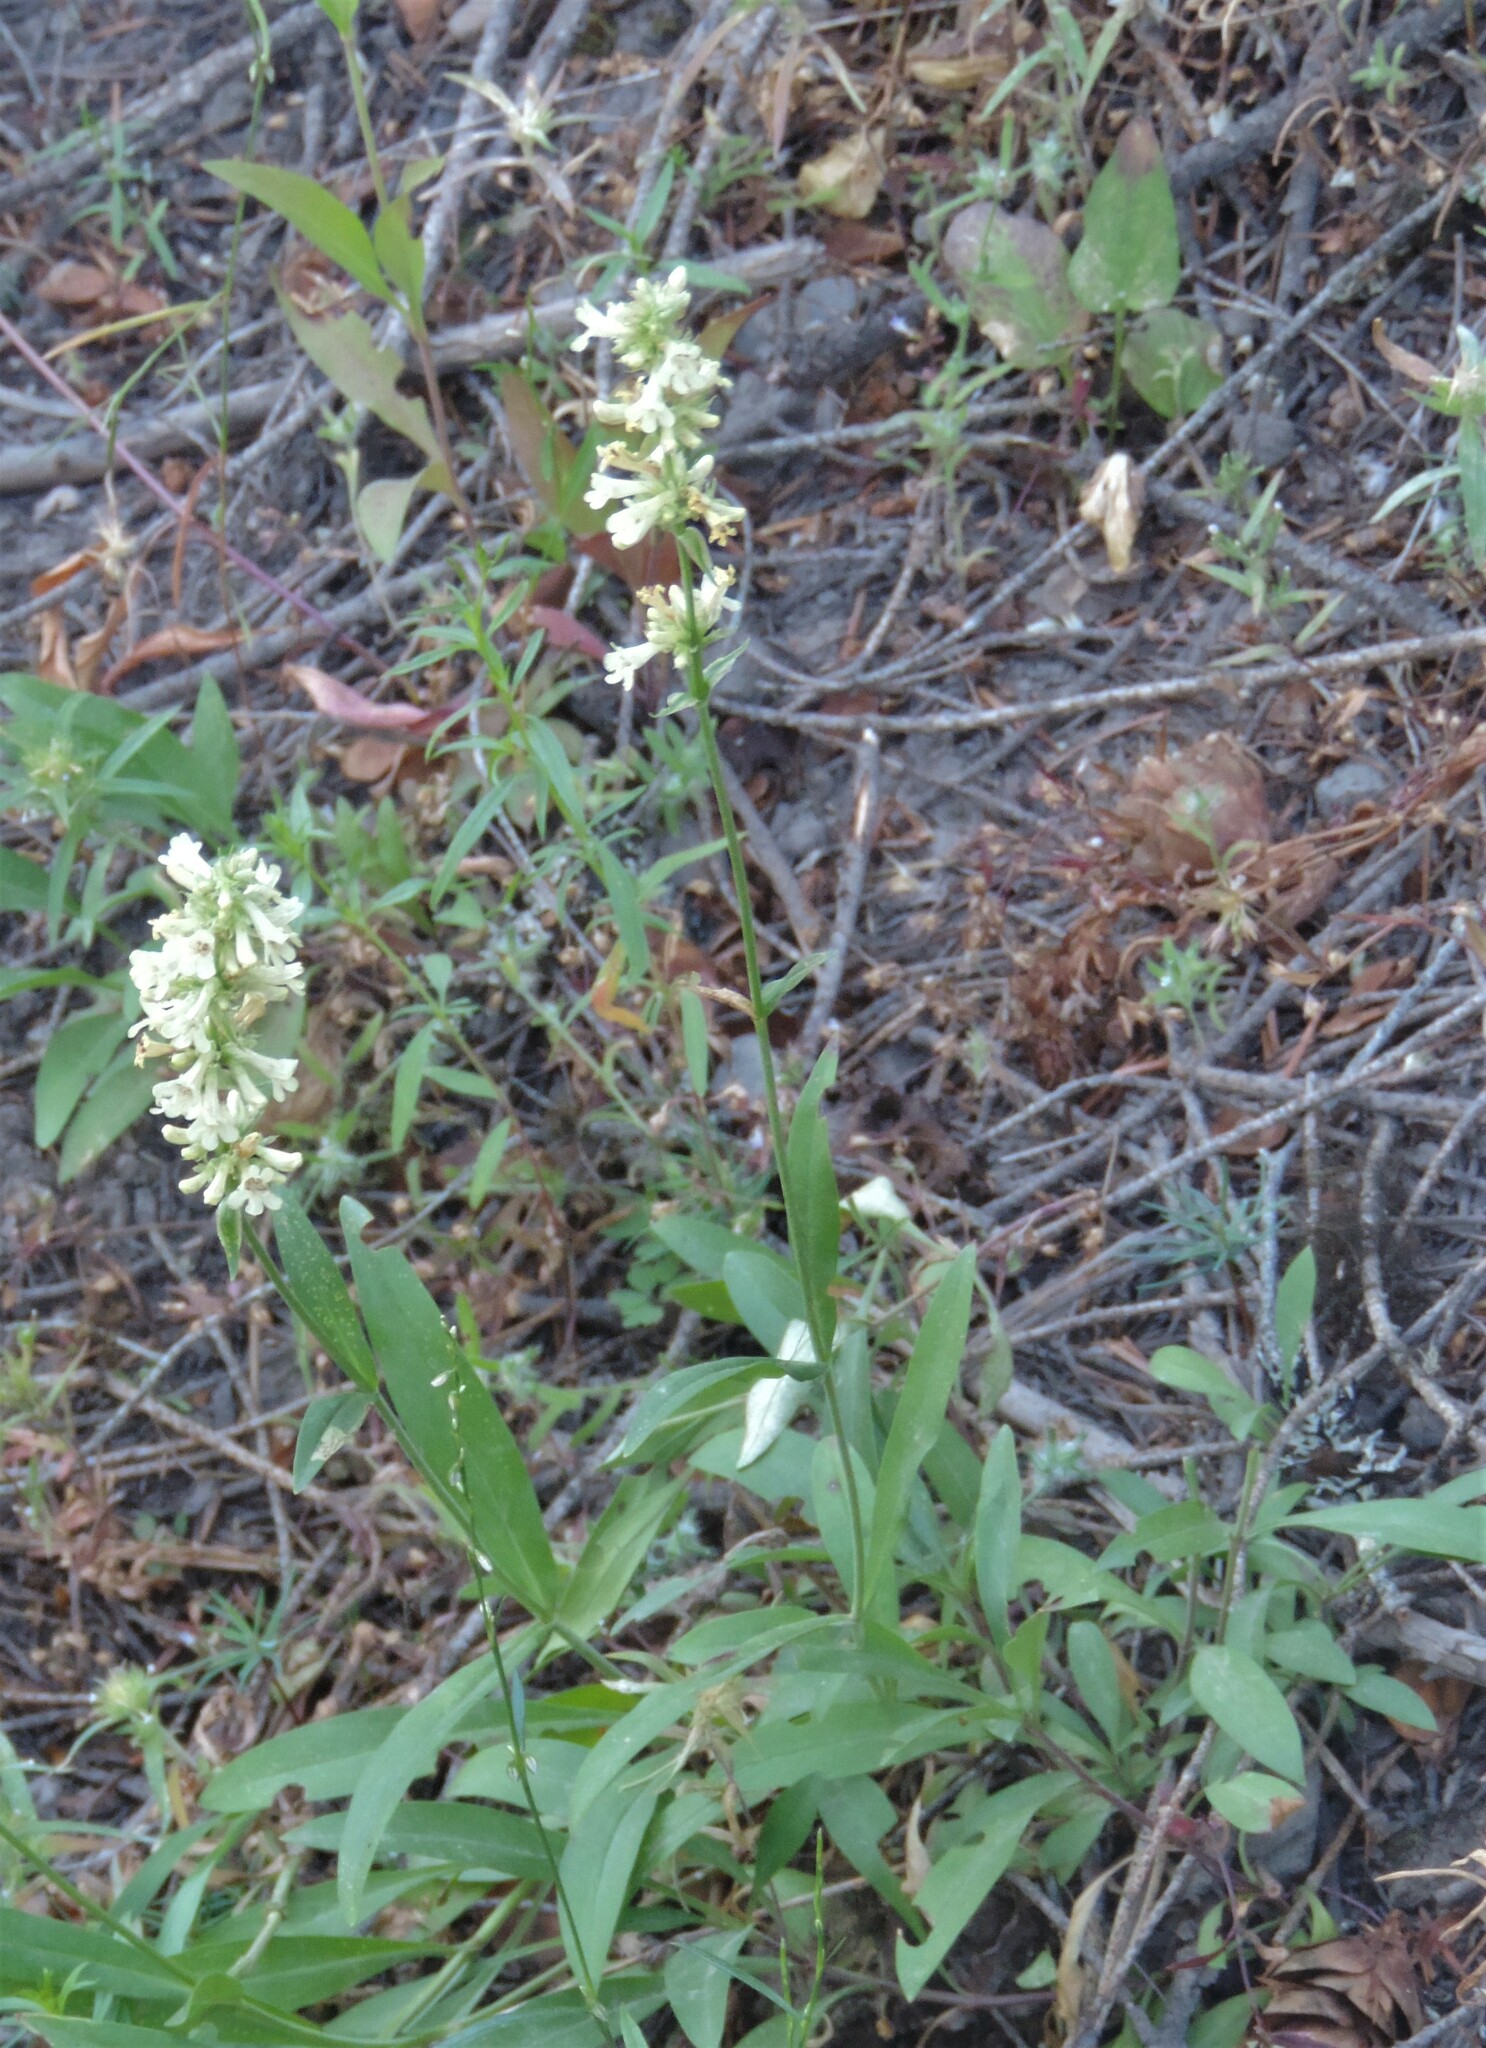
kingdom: Plantae
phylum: Tracheophyta
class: Magnoliopsida
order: Lamiales
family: Plantaginaceae
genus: Penstemon
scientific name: Penstemon confertus
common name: Lesser yellow beardtongue
